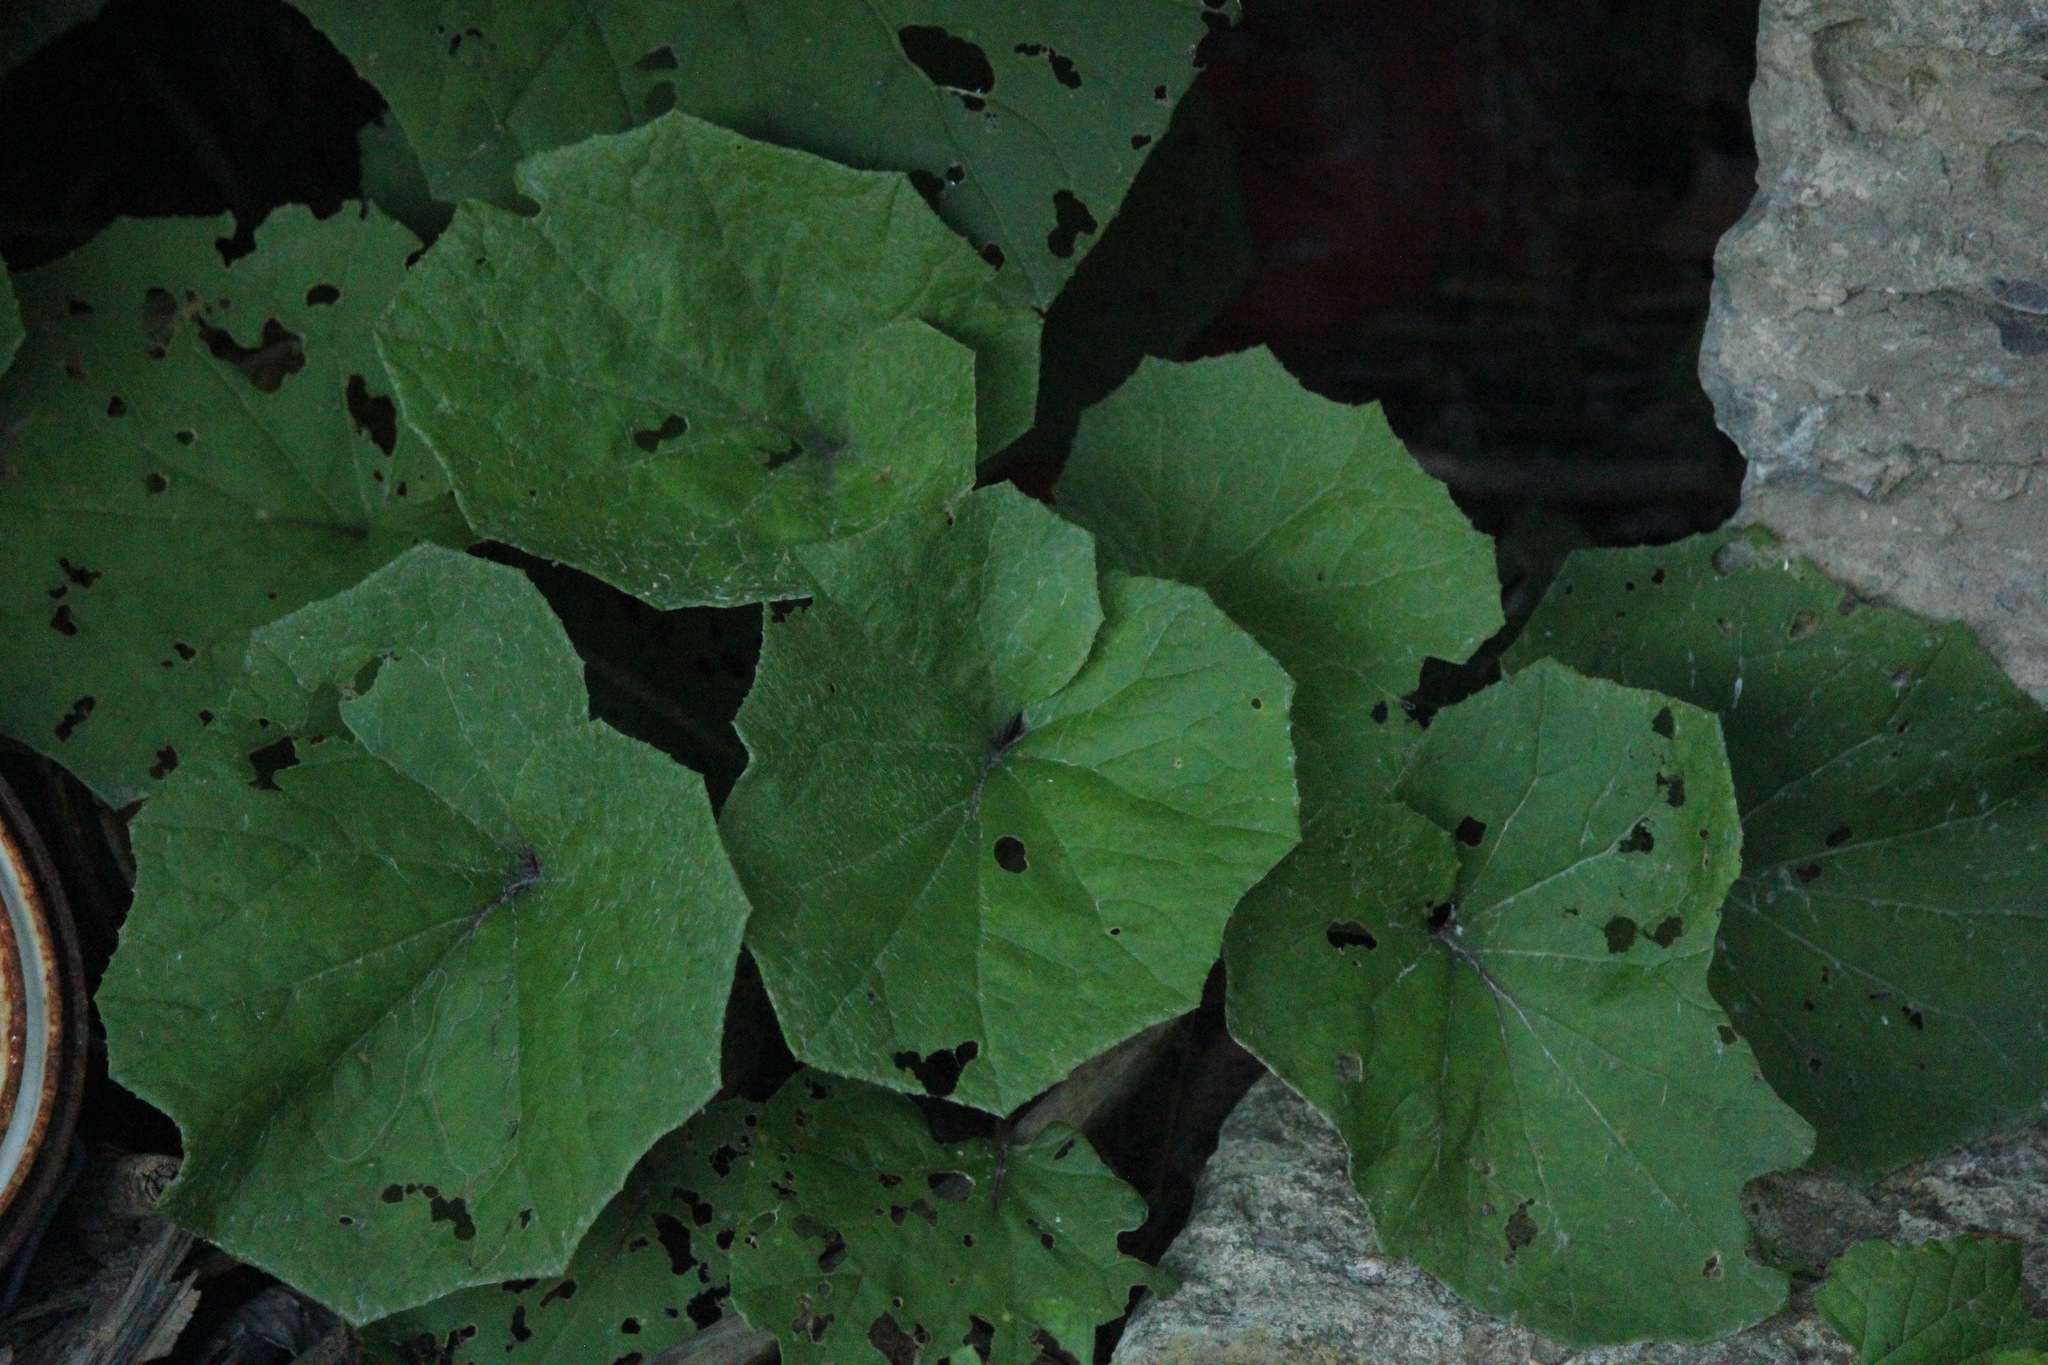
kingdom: Plantae
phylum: Tracheophyta
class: Magnoliopsida
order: Asterales
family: Asteraceae
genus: Tussilago
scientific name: Tussilago farfara
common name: Coltsfoot
